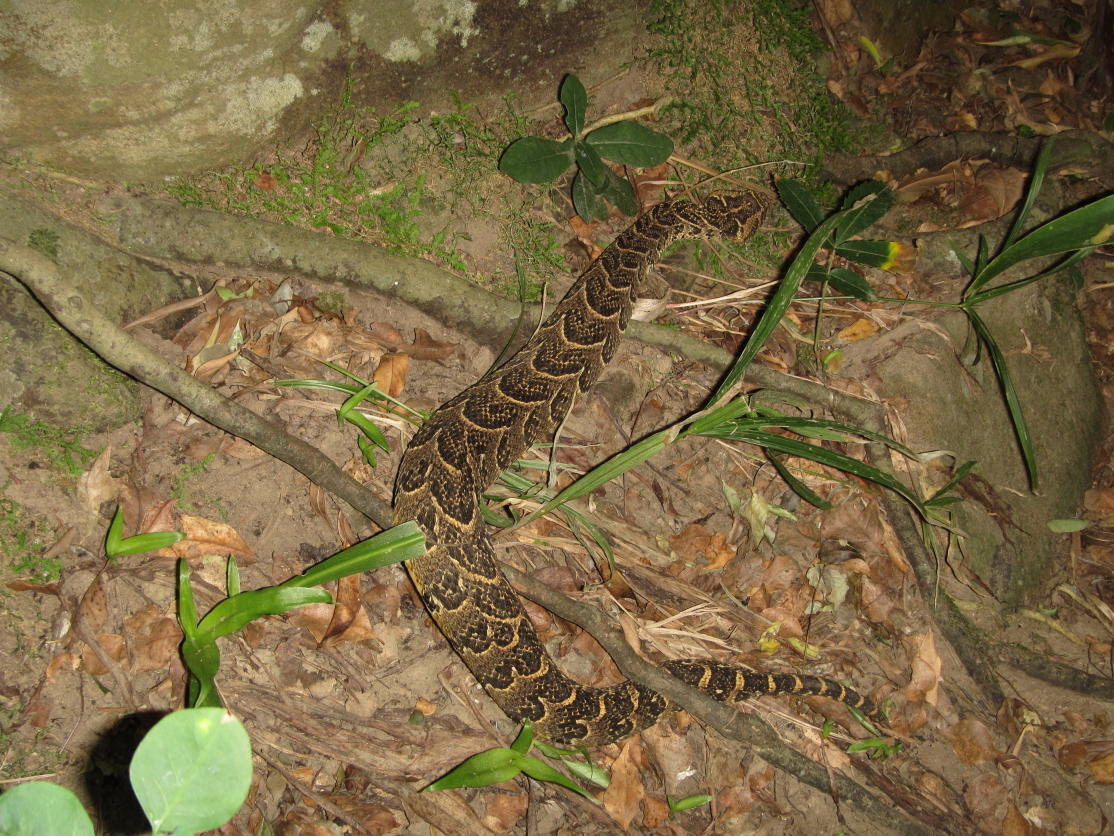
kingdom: Animalia
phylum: Chordata
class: Squamata
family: Viperidae
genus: Bitis
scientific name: Bitis arietans
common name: Puff adder
